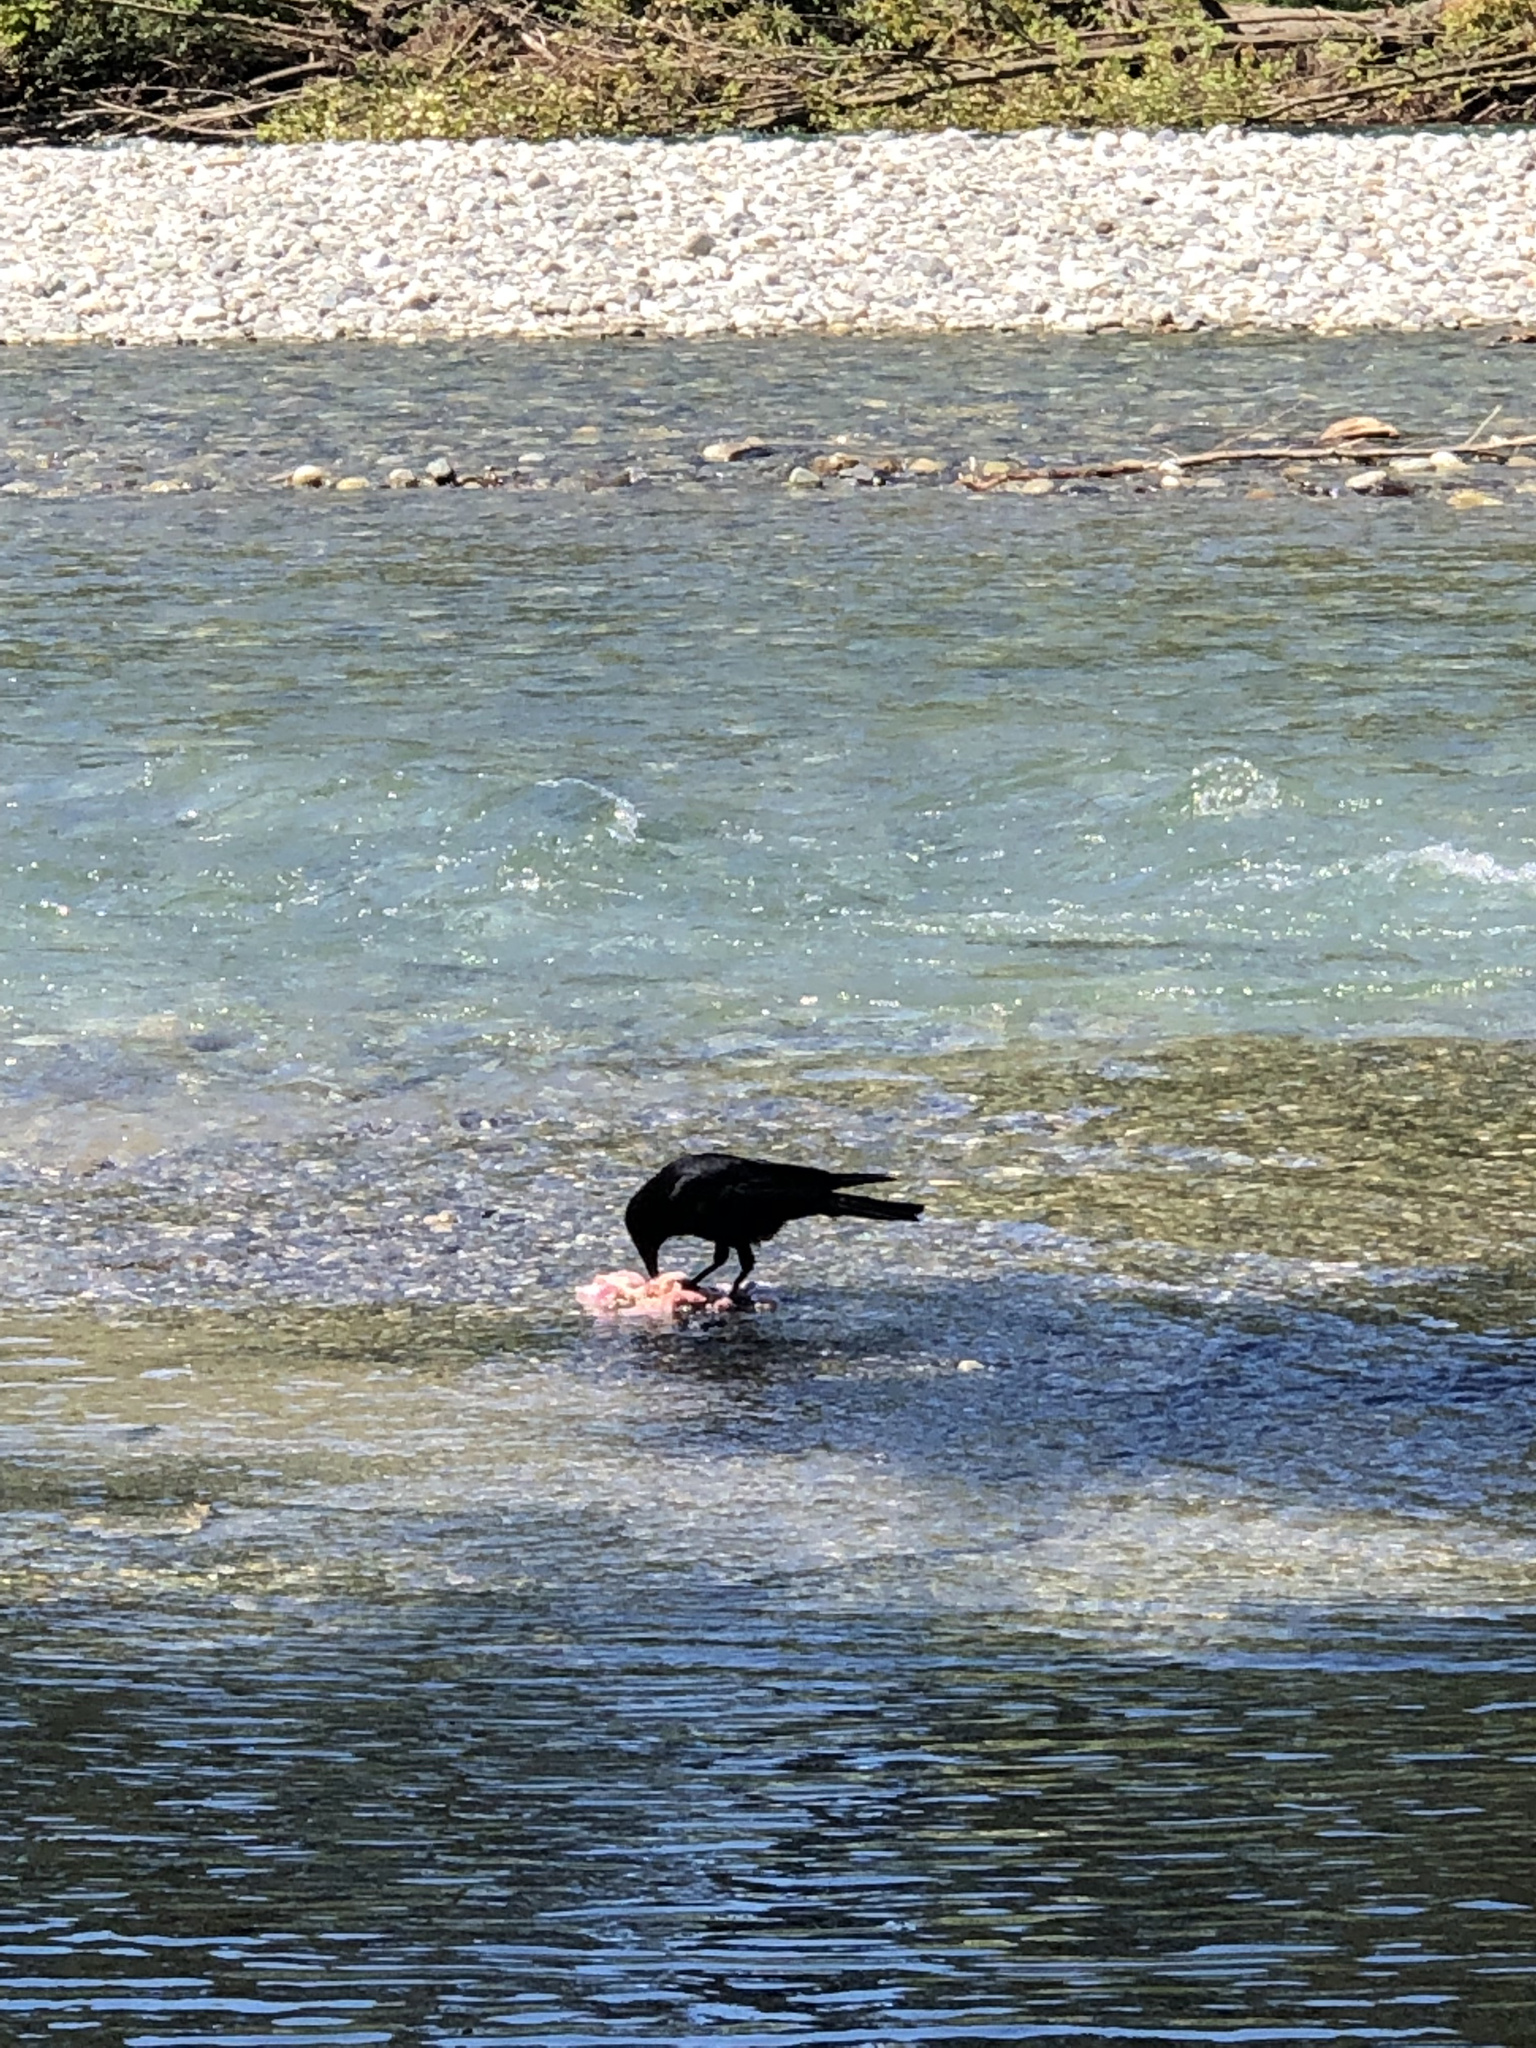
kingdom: Animalia
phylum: Chordata
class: Aves
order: Passeriformes
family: Corvidae
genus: Corvus
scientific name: Corvus brachyrhynchos
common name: American crow
